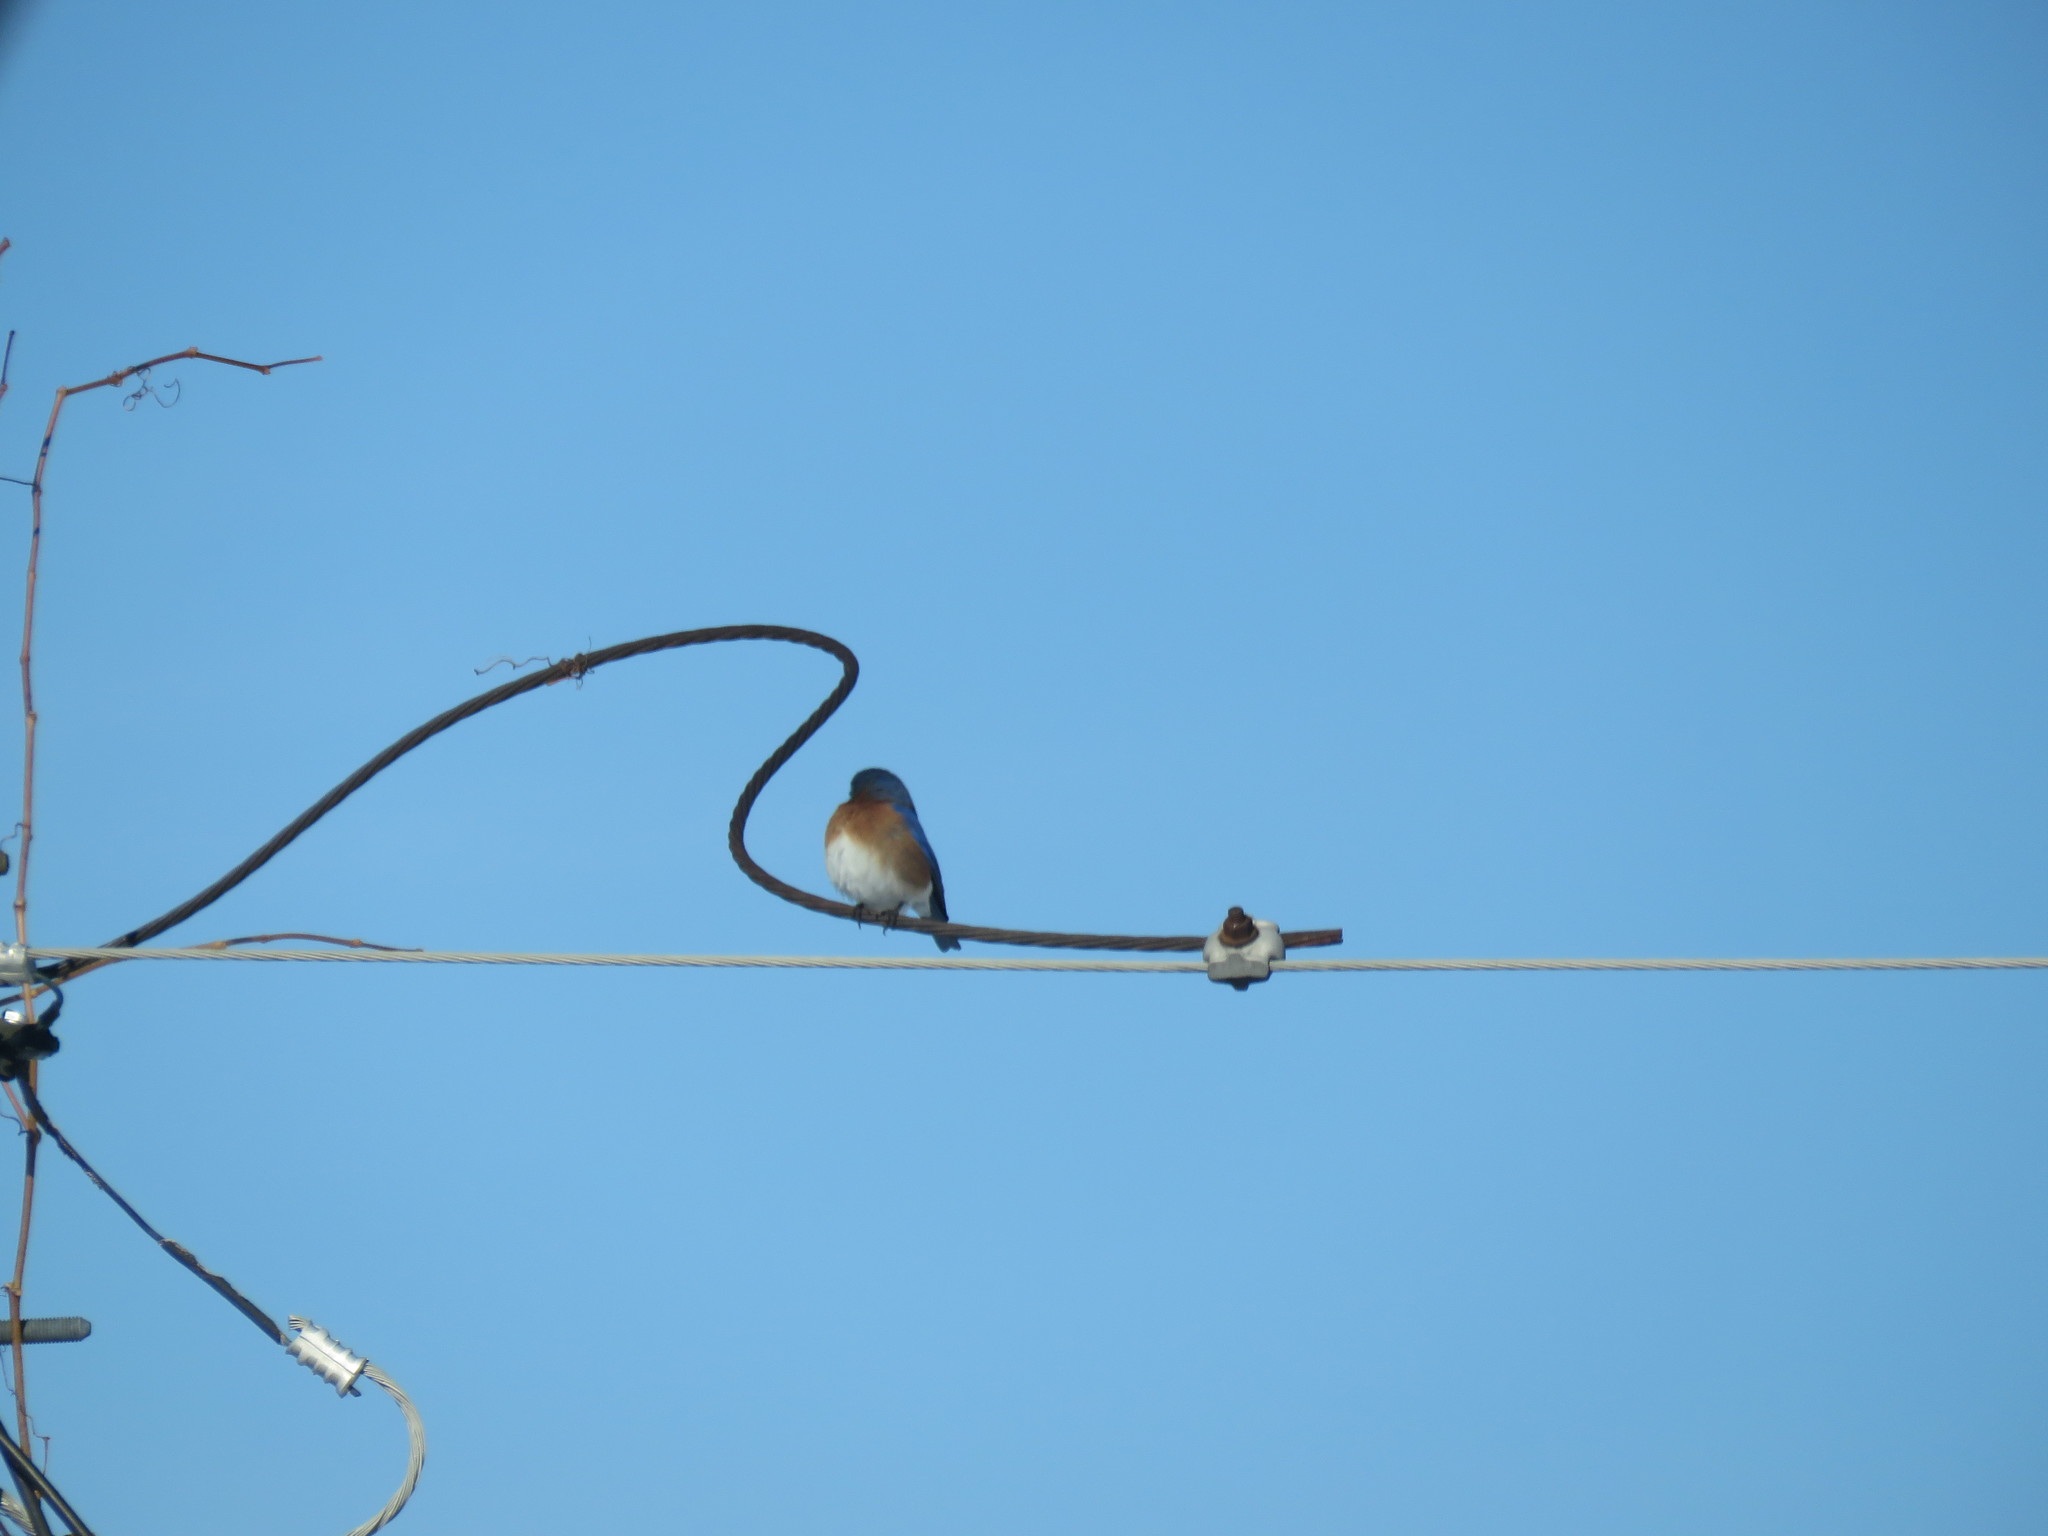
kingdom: Animalia
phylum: Chordata
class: Aves
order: Passeriformes
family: Turdidae
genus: Sialia
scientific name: Sialia sialis
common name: Eastern bluebird
